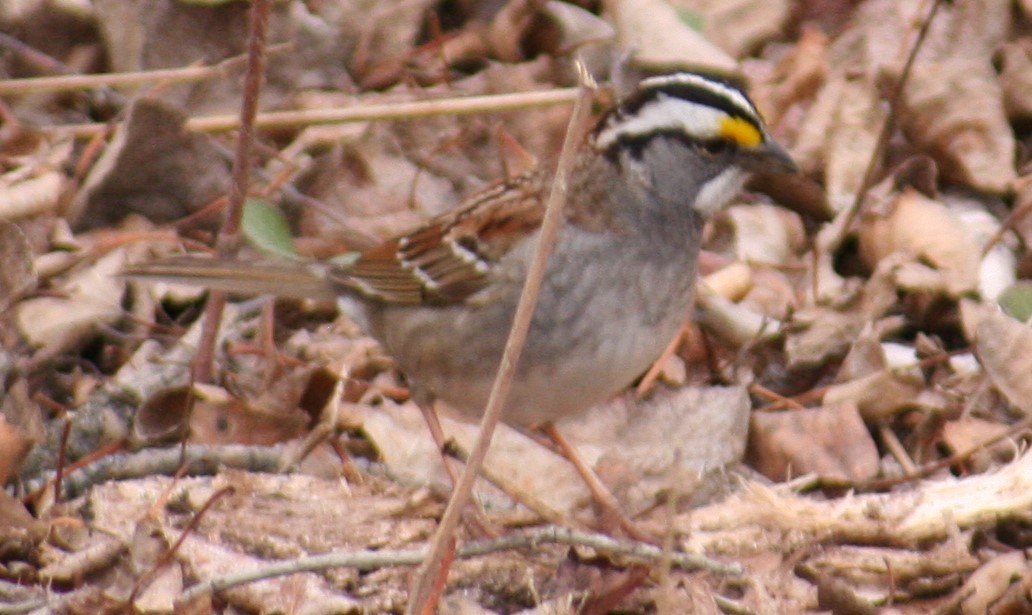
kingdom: Animalia
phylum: Chordata
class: Aves
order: Passeriformes
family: Passerellidae
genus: Zonotrichia
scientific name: Zonotrichia albicollis
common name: White-throated sparrow
